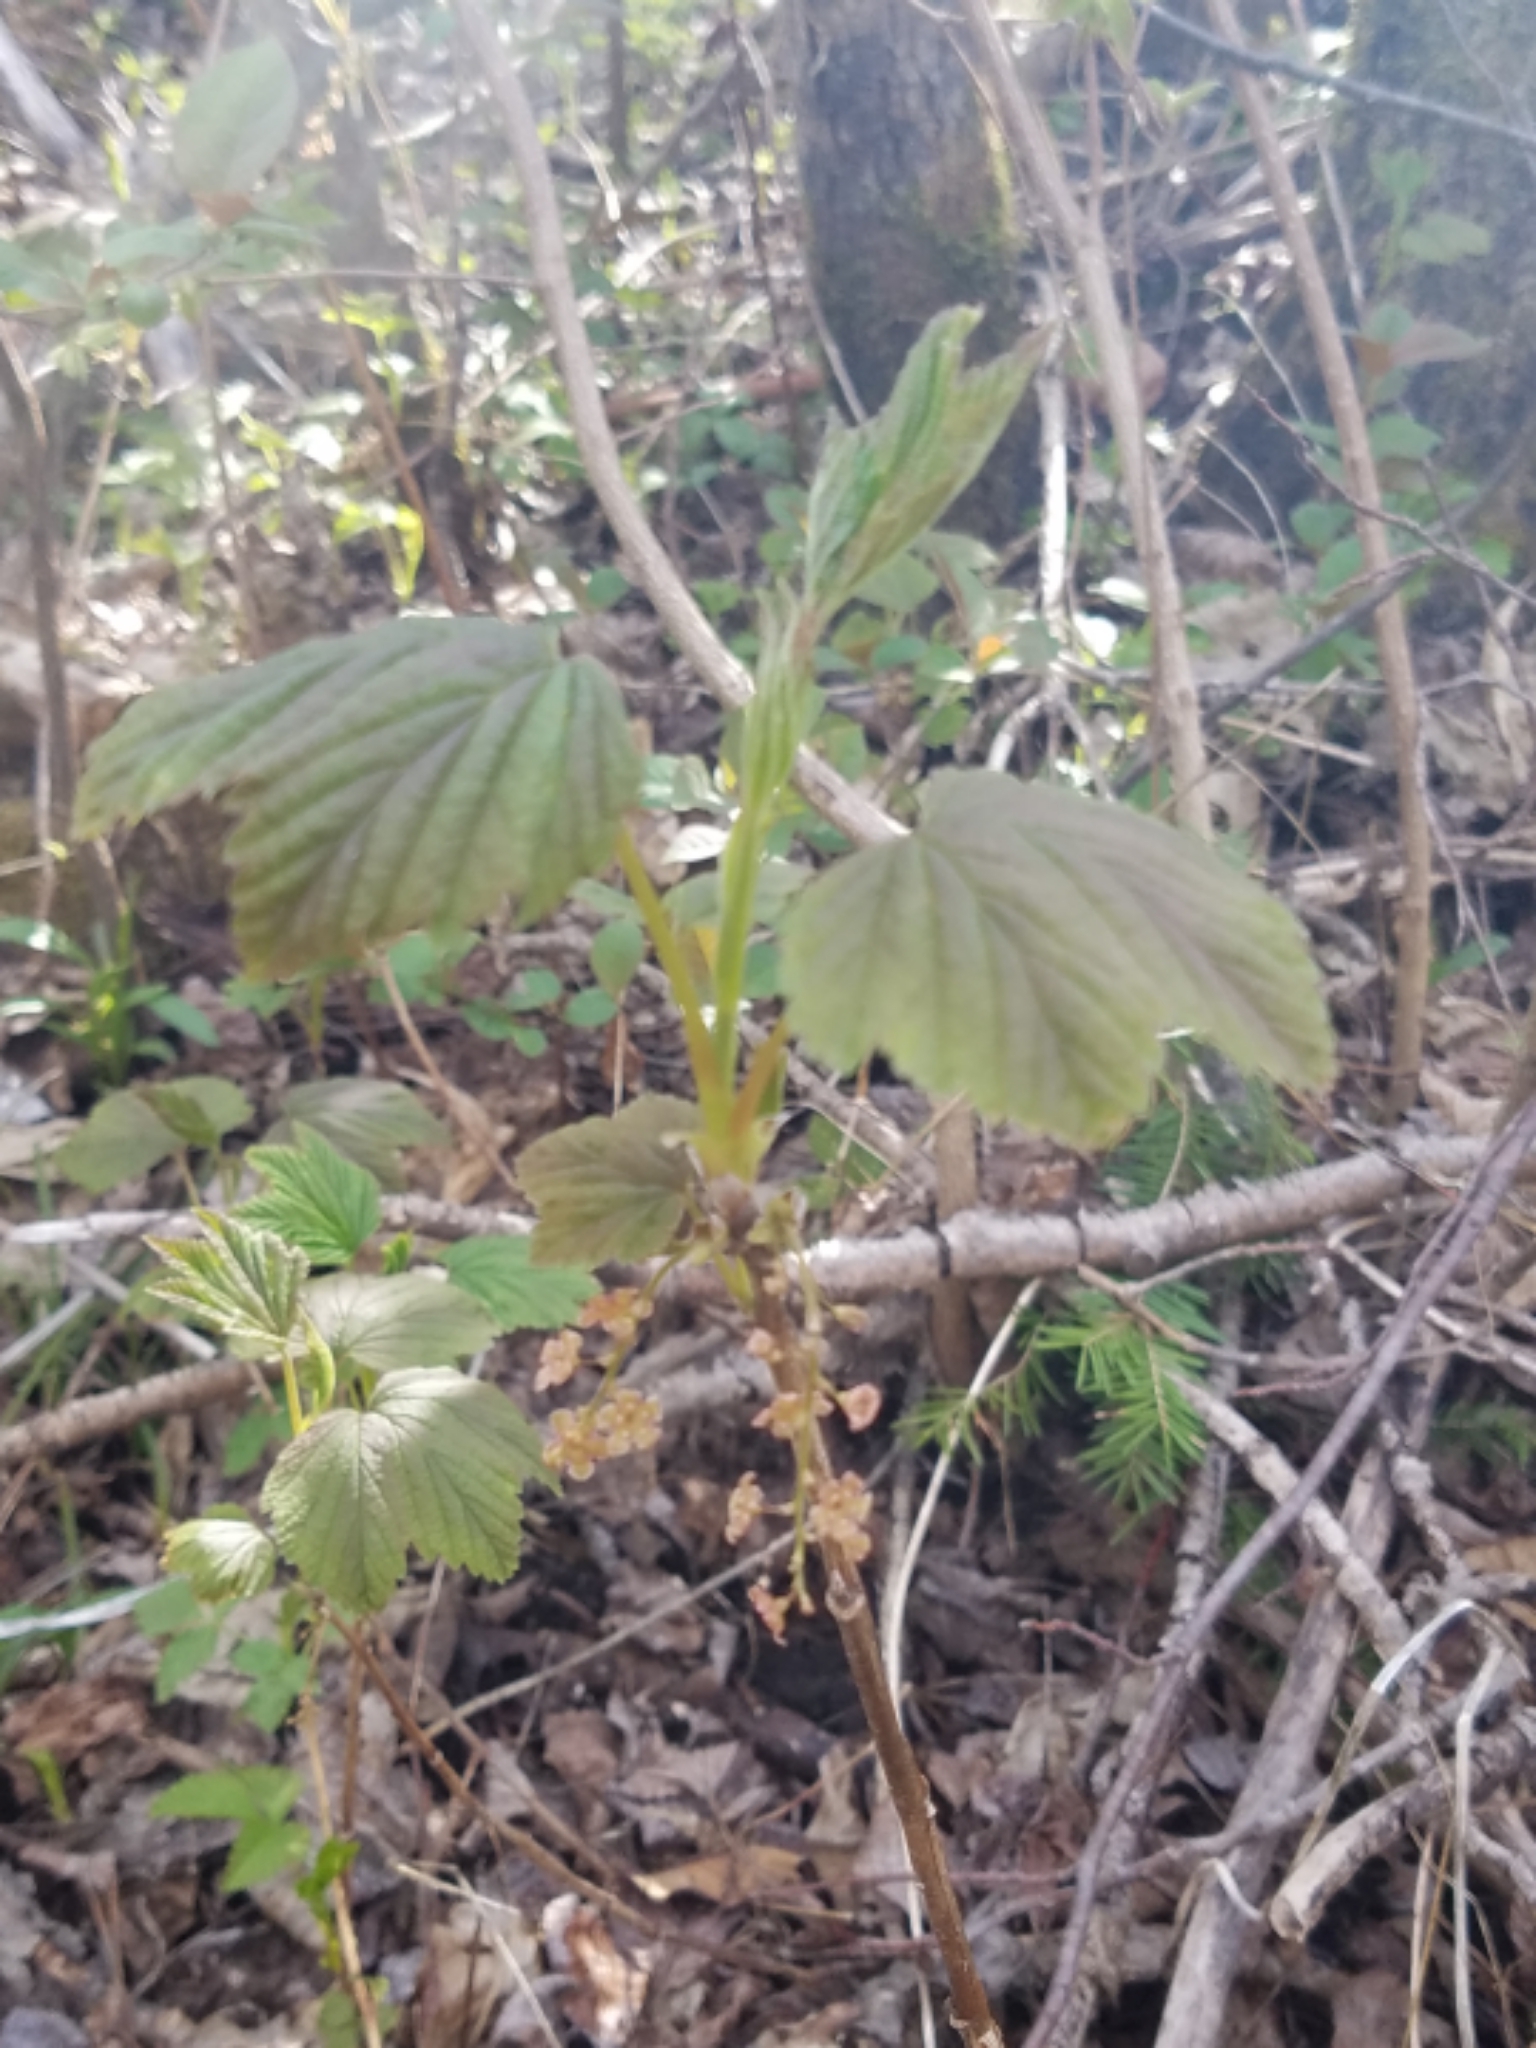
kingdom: Plantae
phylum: Tracheophyta
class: Magnoliopsida
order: Saxifragales
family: Grossulariaceae
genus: Ribes
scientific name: Ribes triste
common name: Swamp red currant
